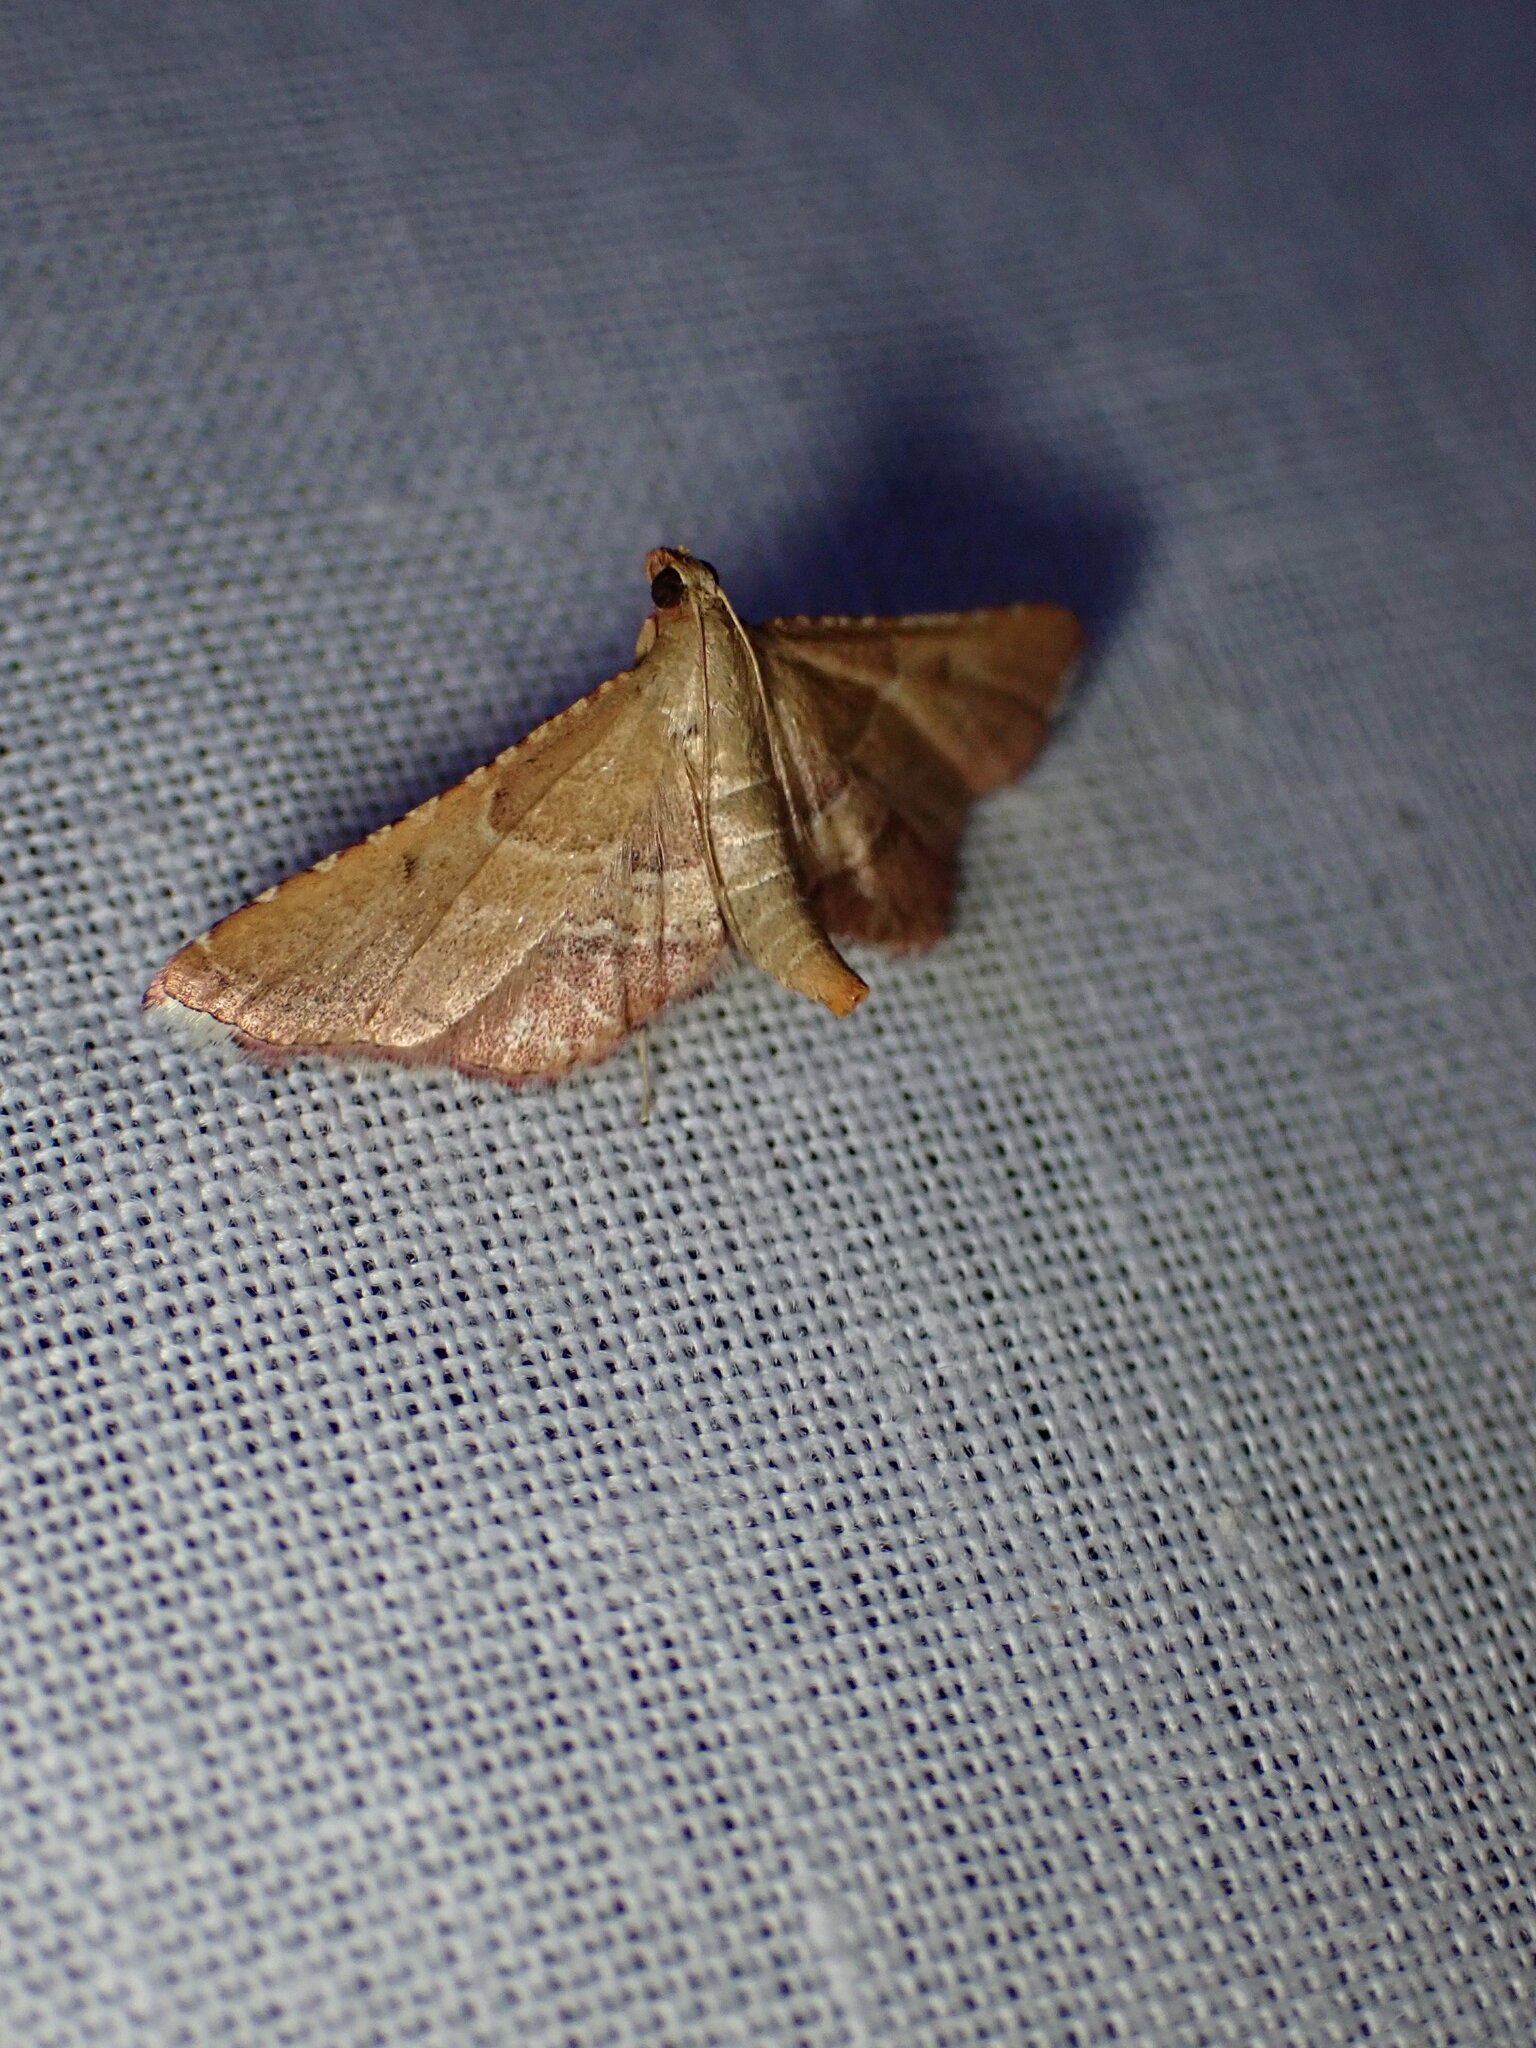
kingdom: Animalia
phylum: Arthropoda
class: Insecta
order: Lepidoptera
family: Pyralidae
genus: Endotricha
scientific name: Endotricha flammealis
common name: Rosy tabby
